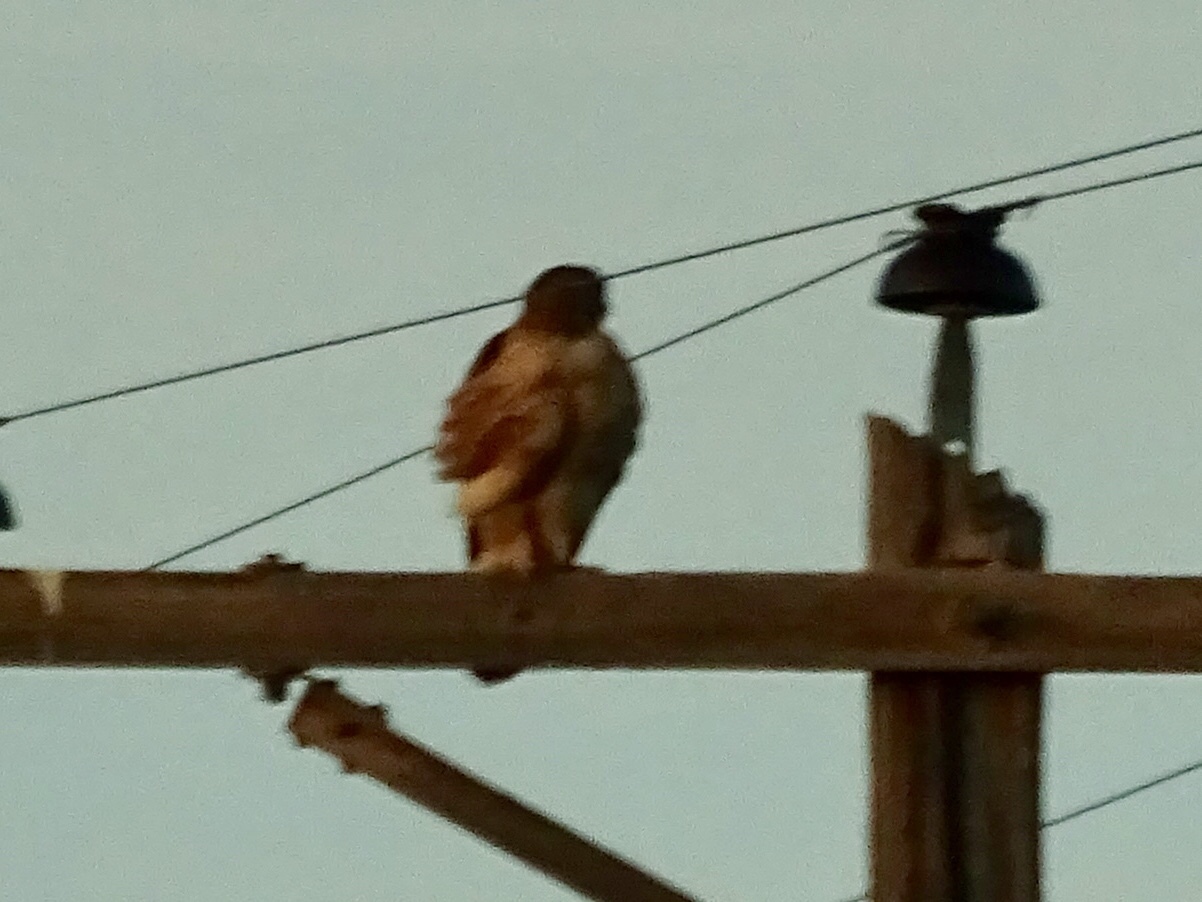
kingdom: Animalia
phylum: Chordata
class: Aves
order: Accipitriformes
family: Accipitridae
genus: Buteo
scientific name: Buteo jamaicensis
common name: Red-tailed hawk
